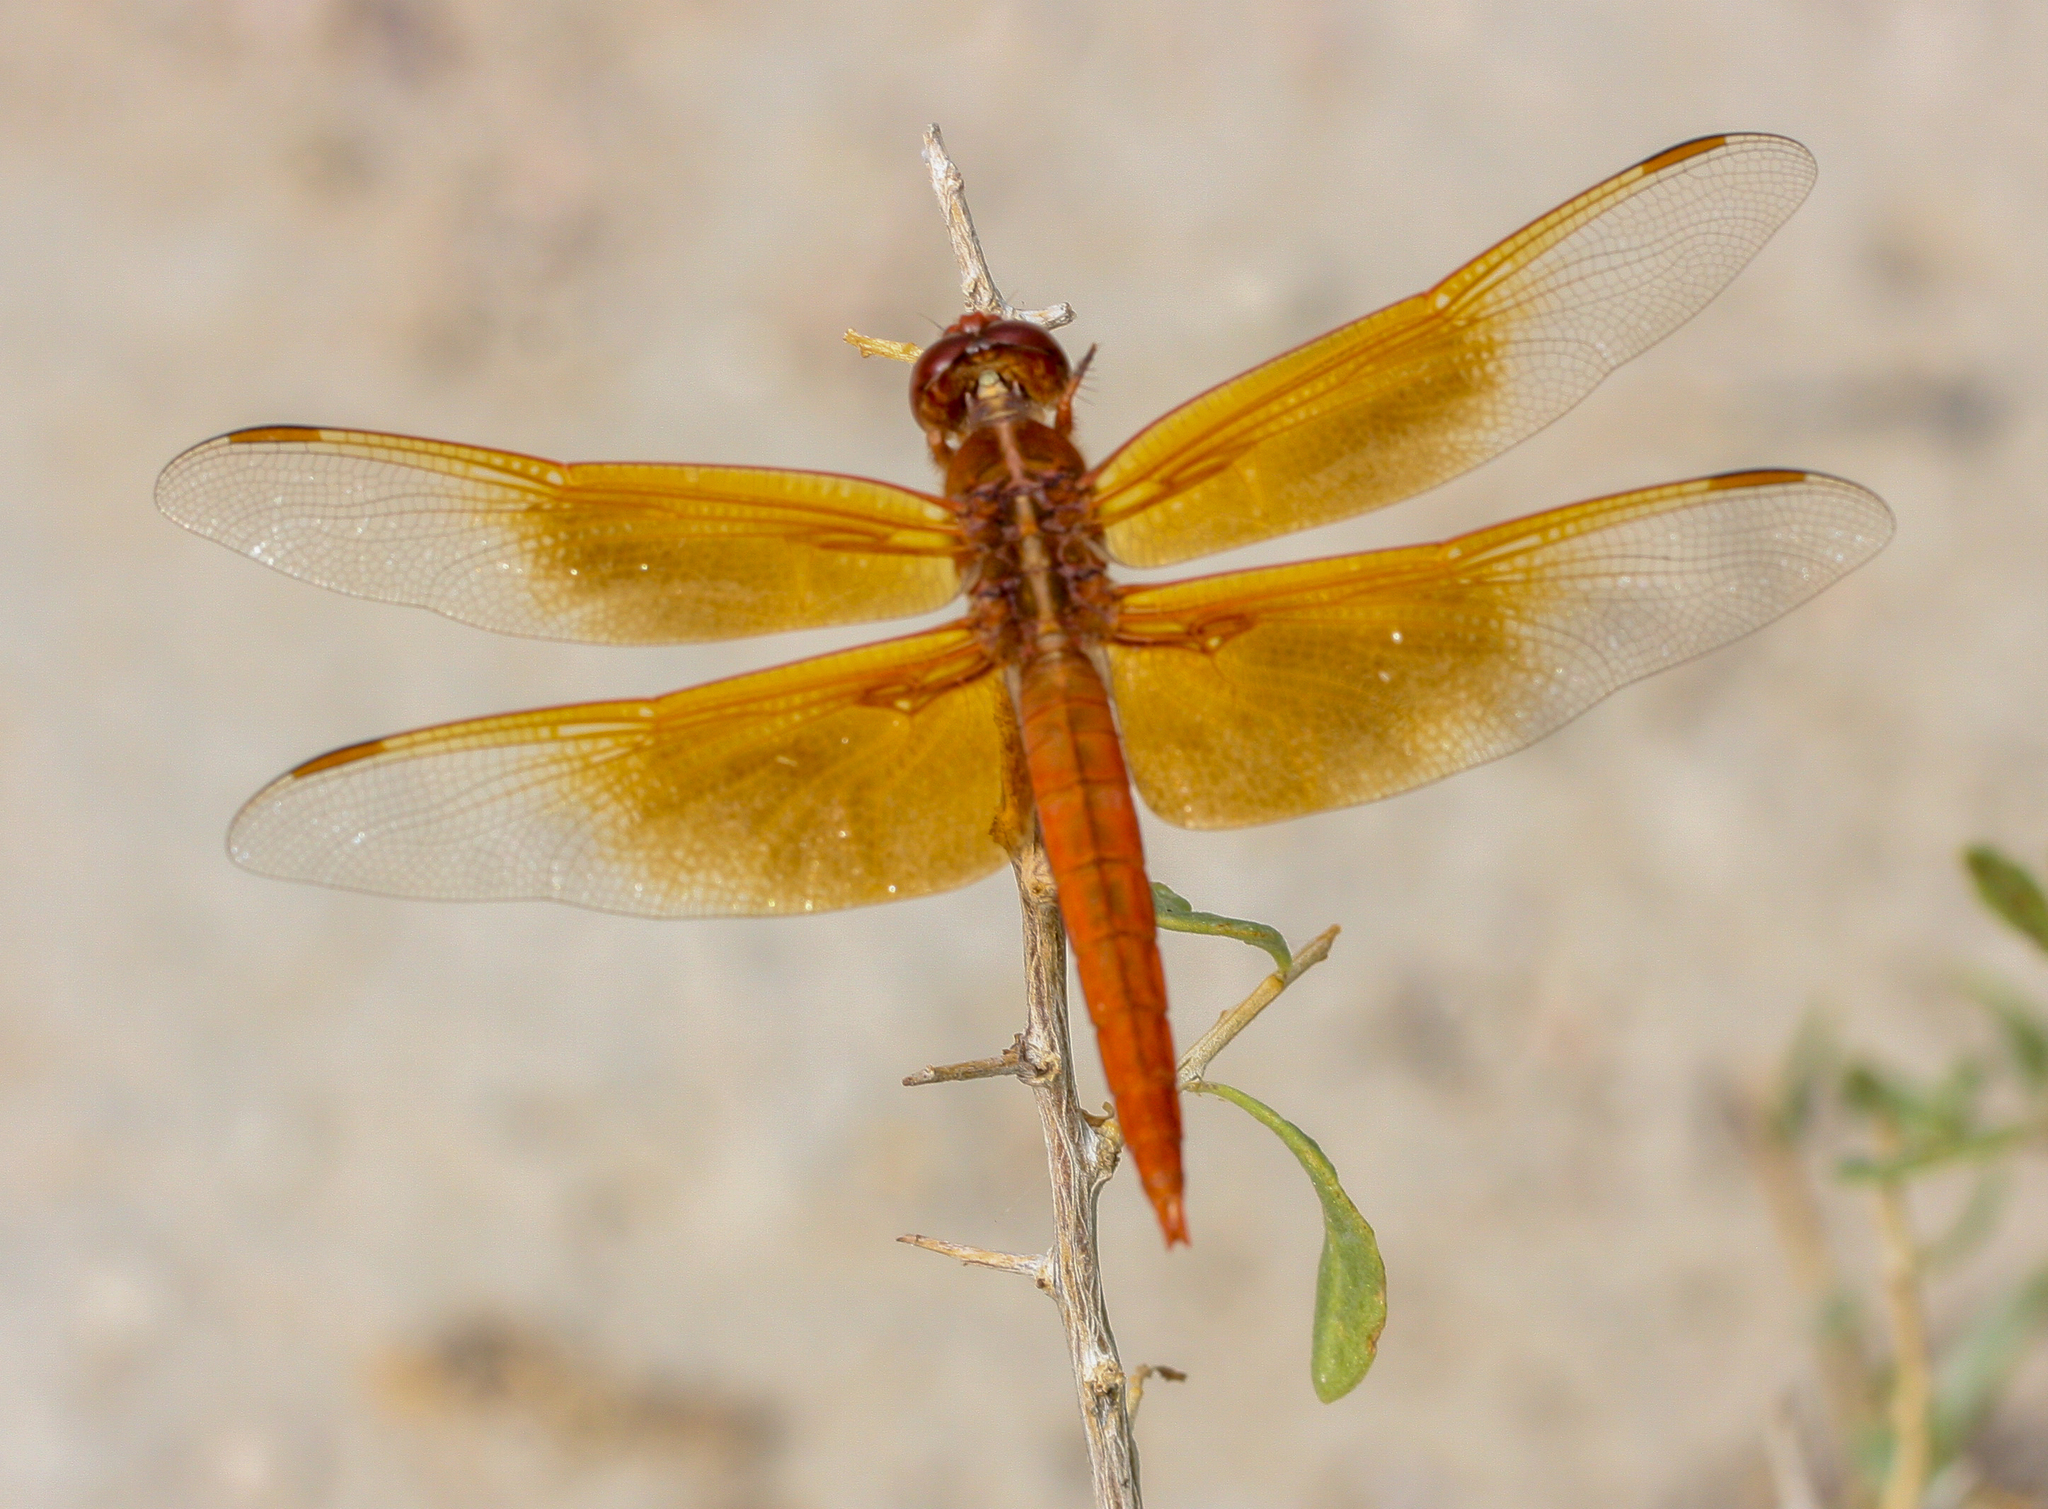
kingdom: Animalia
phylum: Arthropoda
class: Insecta
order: Odonata
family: Libellulidae
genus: Libellula
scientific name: Libellula saturata
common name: Flame skimmer
